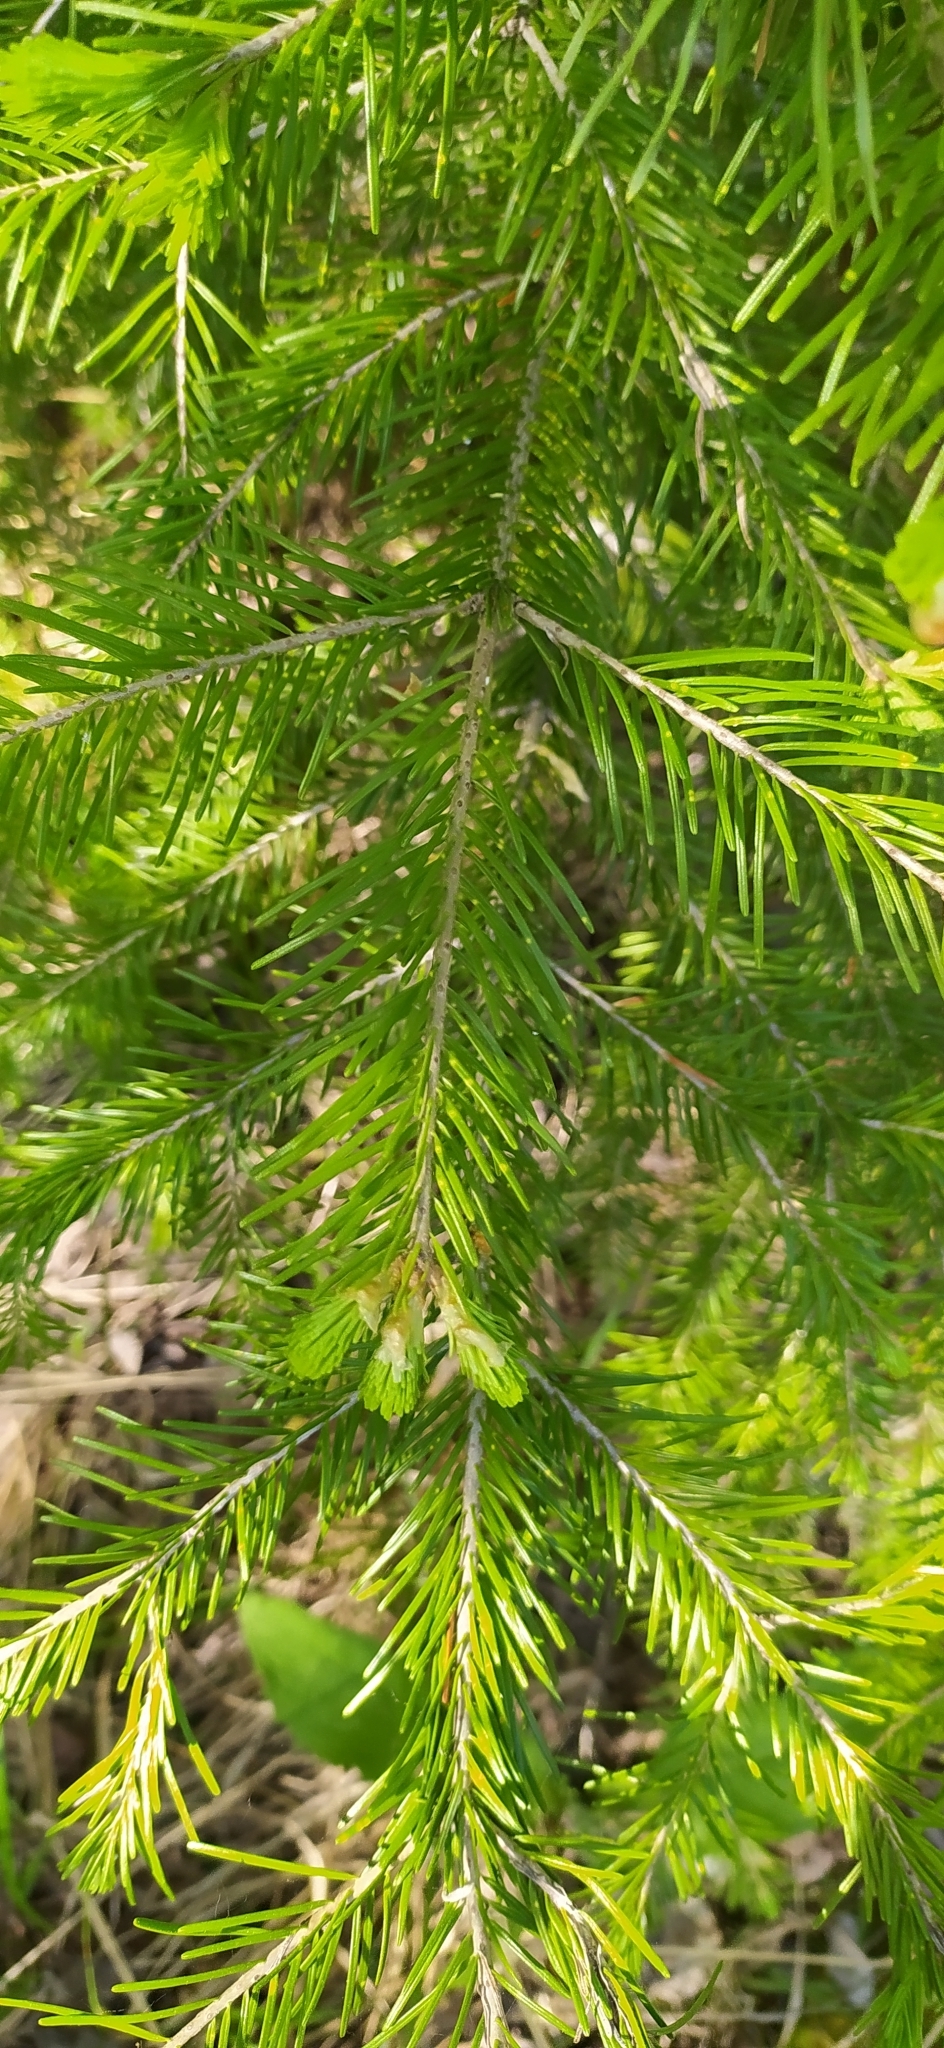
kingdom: Plantae
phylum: Tracheophyta
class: Pinopsida
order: Pinales
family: Pinaceae
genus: Abies
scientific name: Abies sibirica
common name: Siberian fir
